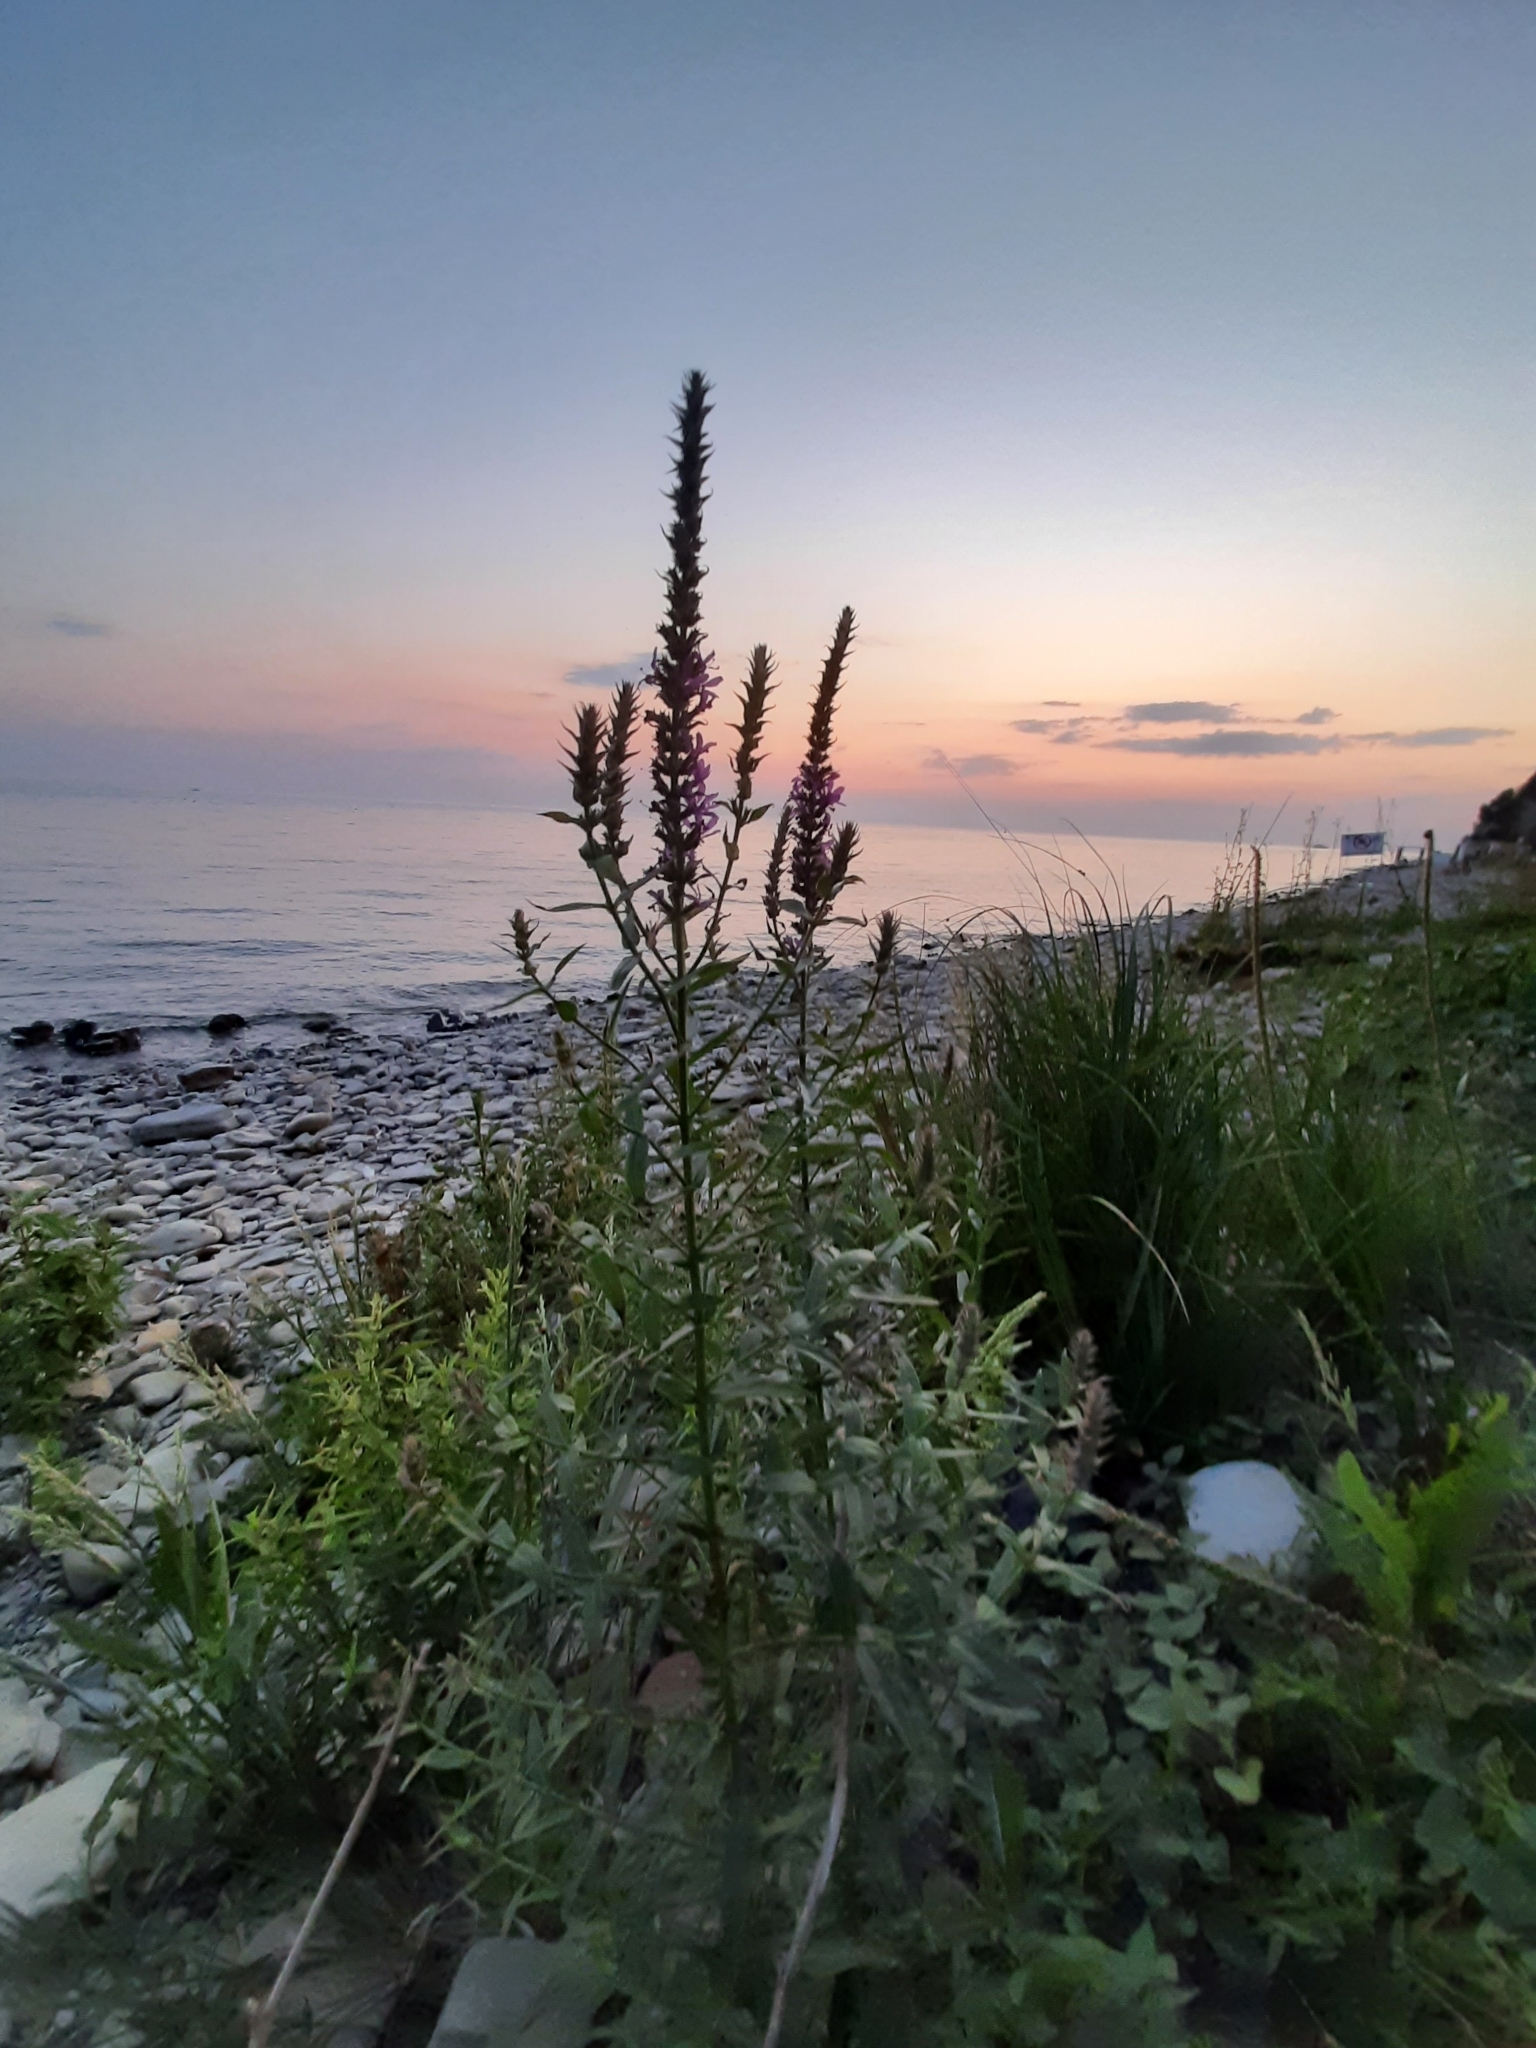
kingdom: Plantae
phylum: Tracheophyta
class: Magnoliopsida
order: Myrtales
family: Lythraceae
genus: Lythrum
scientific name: Lythrum salicaria
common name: Purple loosestrife
